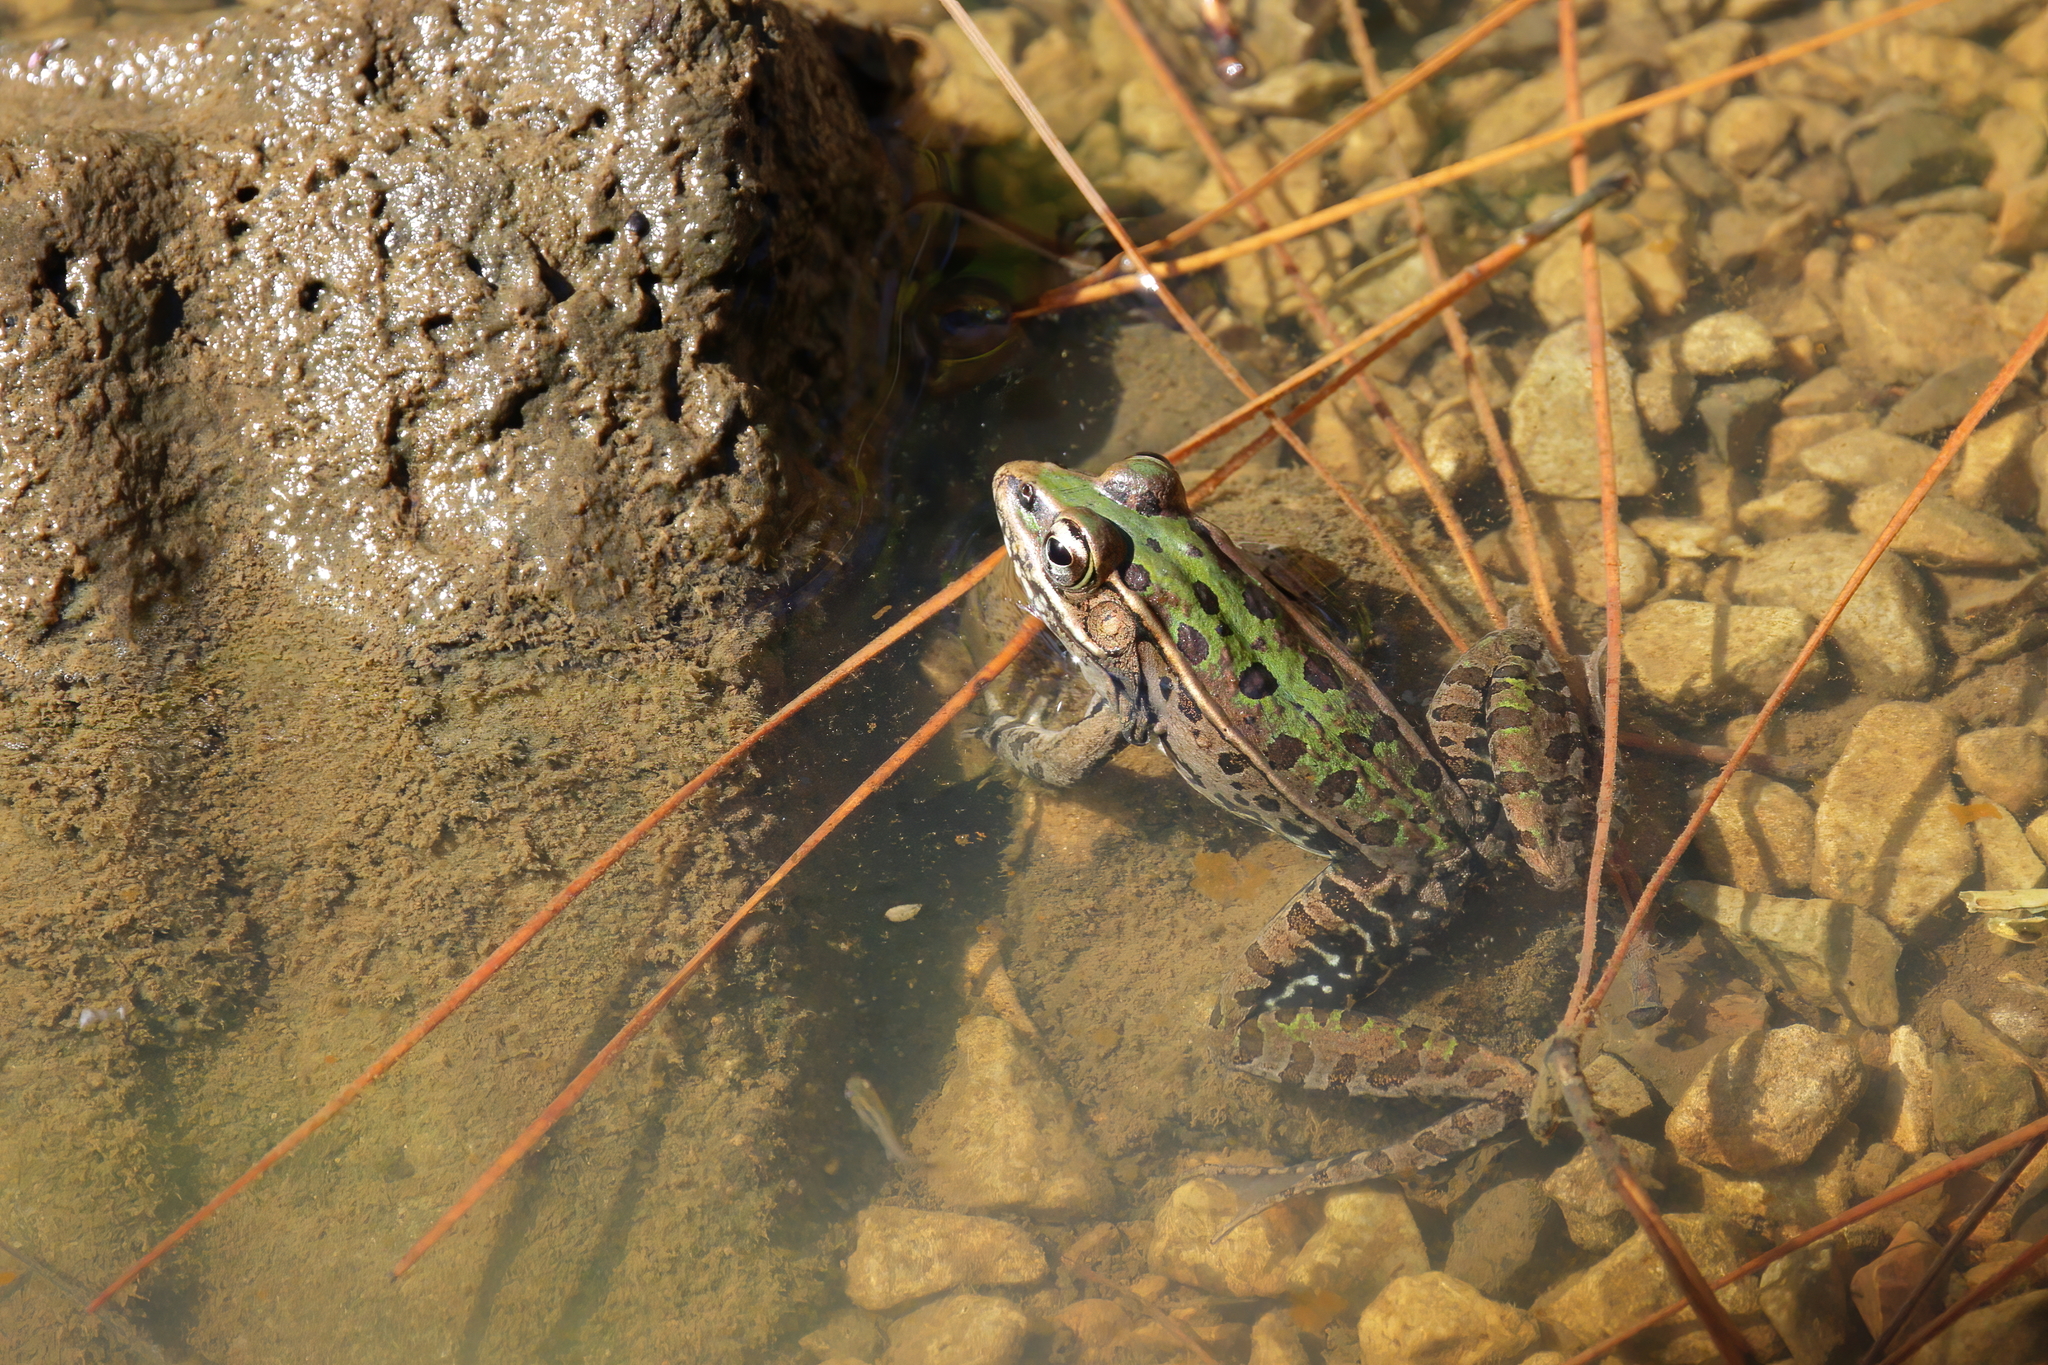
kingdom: Animalia
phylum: Chordata
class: Amphibia
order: Anura
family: Ranidae
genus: Lithobates
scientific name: Lithobates sphenocephalus
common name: Southern leopard frog
